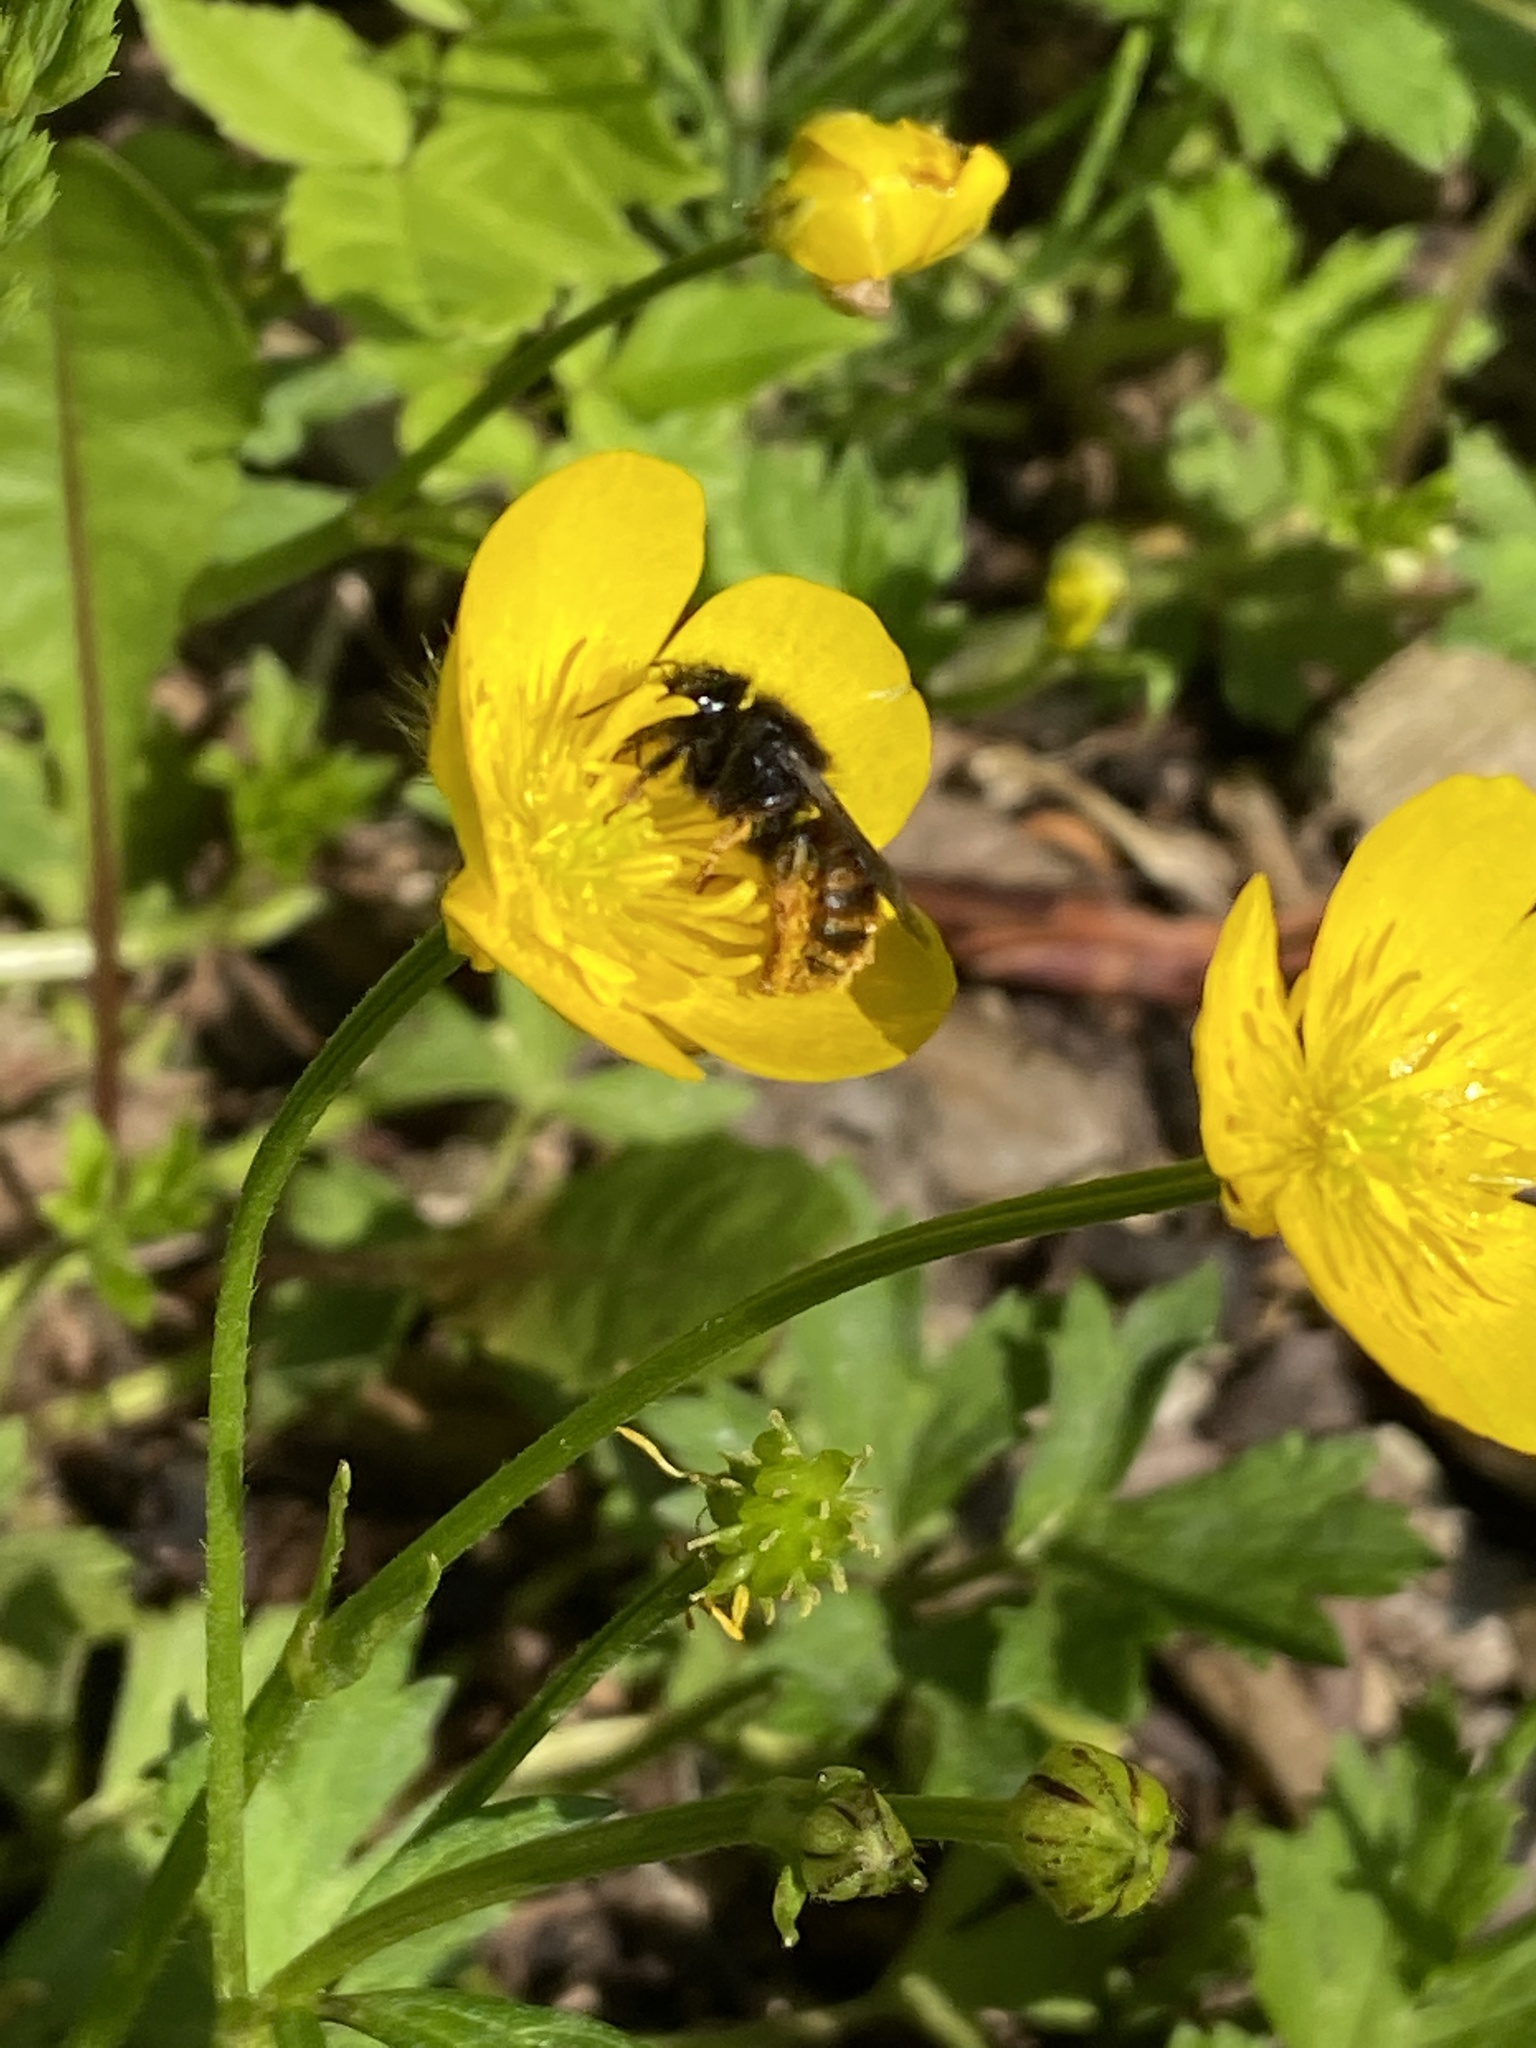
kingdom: Animalia
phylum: Arthropoda
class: Insecta
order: Hymenoptera
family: Megachilidae
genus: Osmia
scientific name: Osmia bicolor
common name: Red-tailed mason bee
